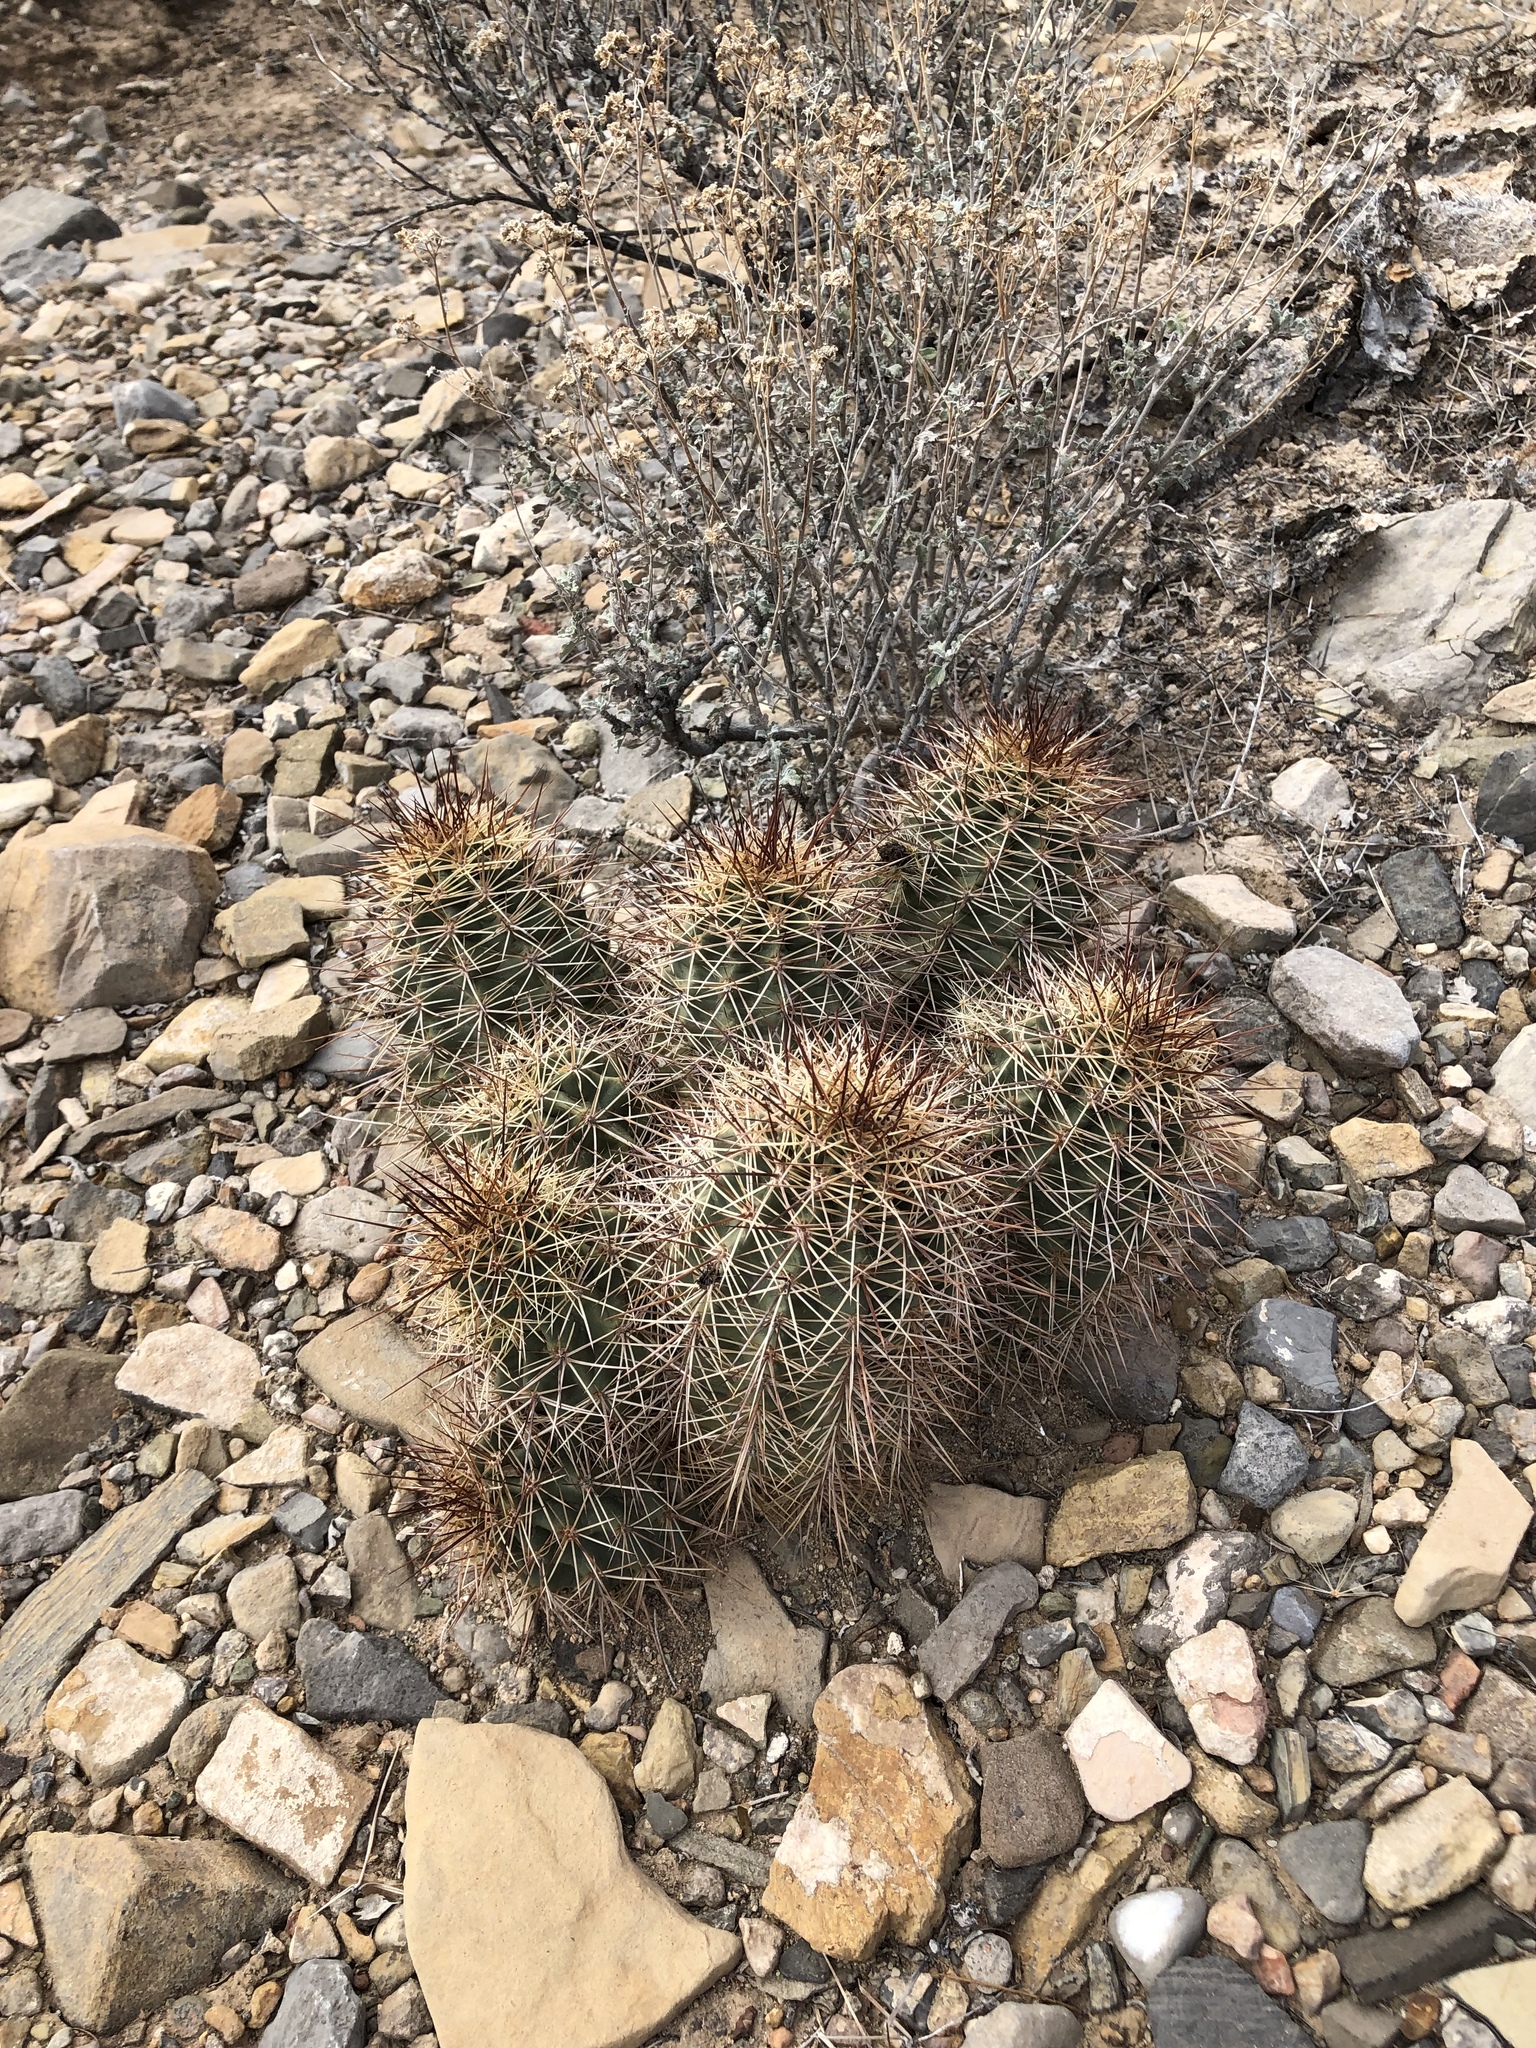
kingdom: Plantae
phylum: Tracheophyta
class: Magnoliopsida
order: Caryophyllales
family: Cactaceae
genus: Echinocereus
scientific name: Echinocereus coccineus
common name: Scarlet hedgehog cactus
